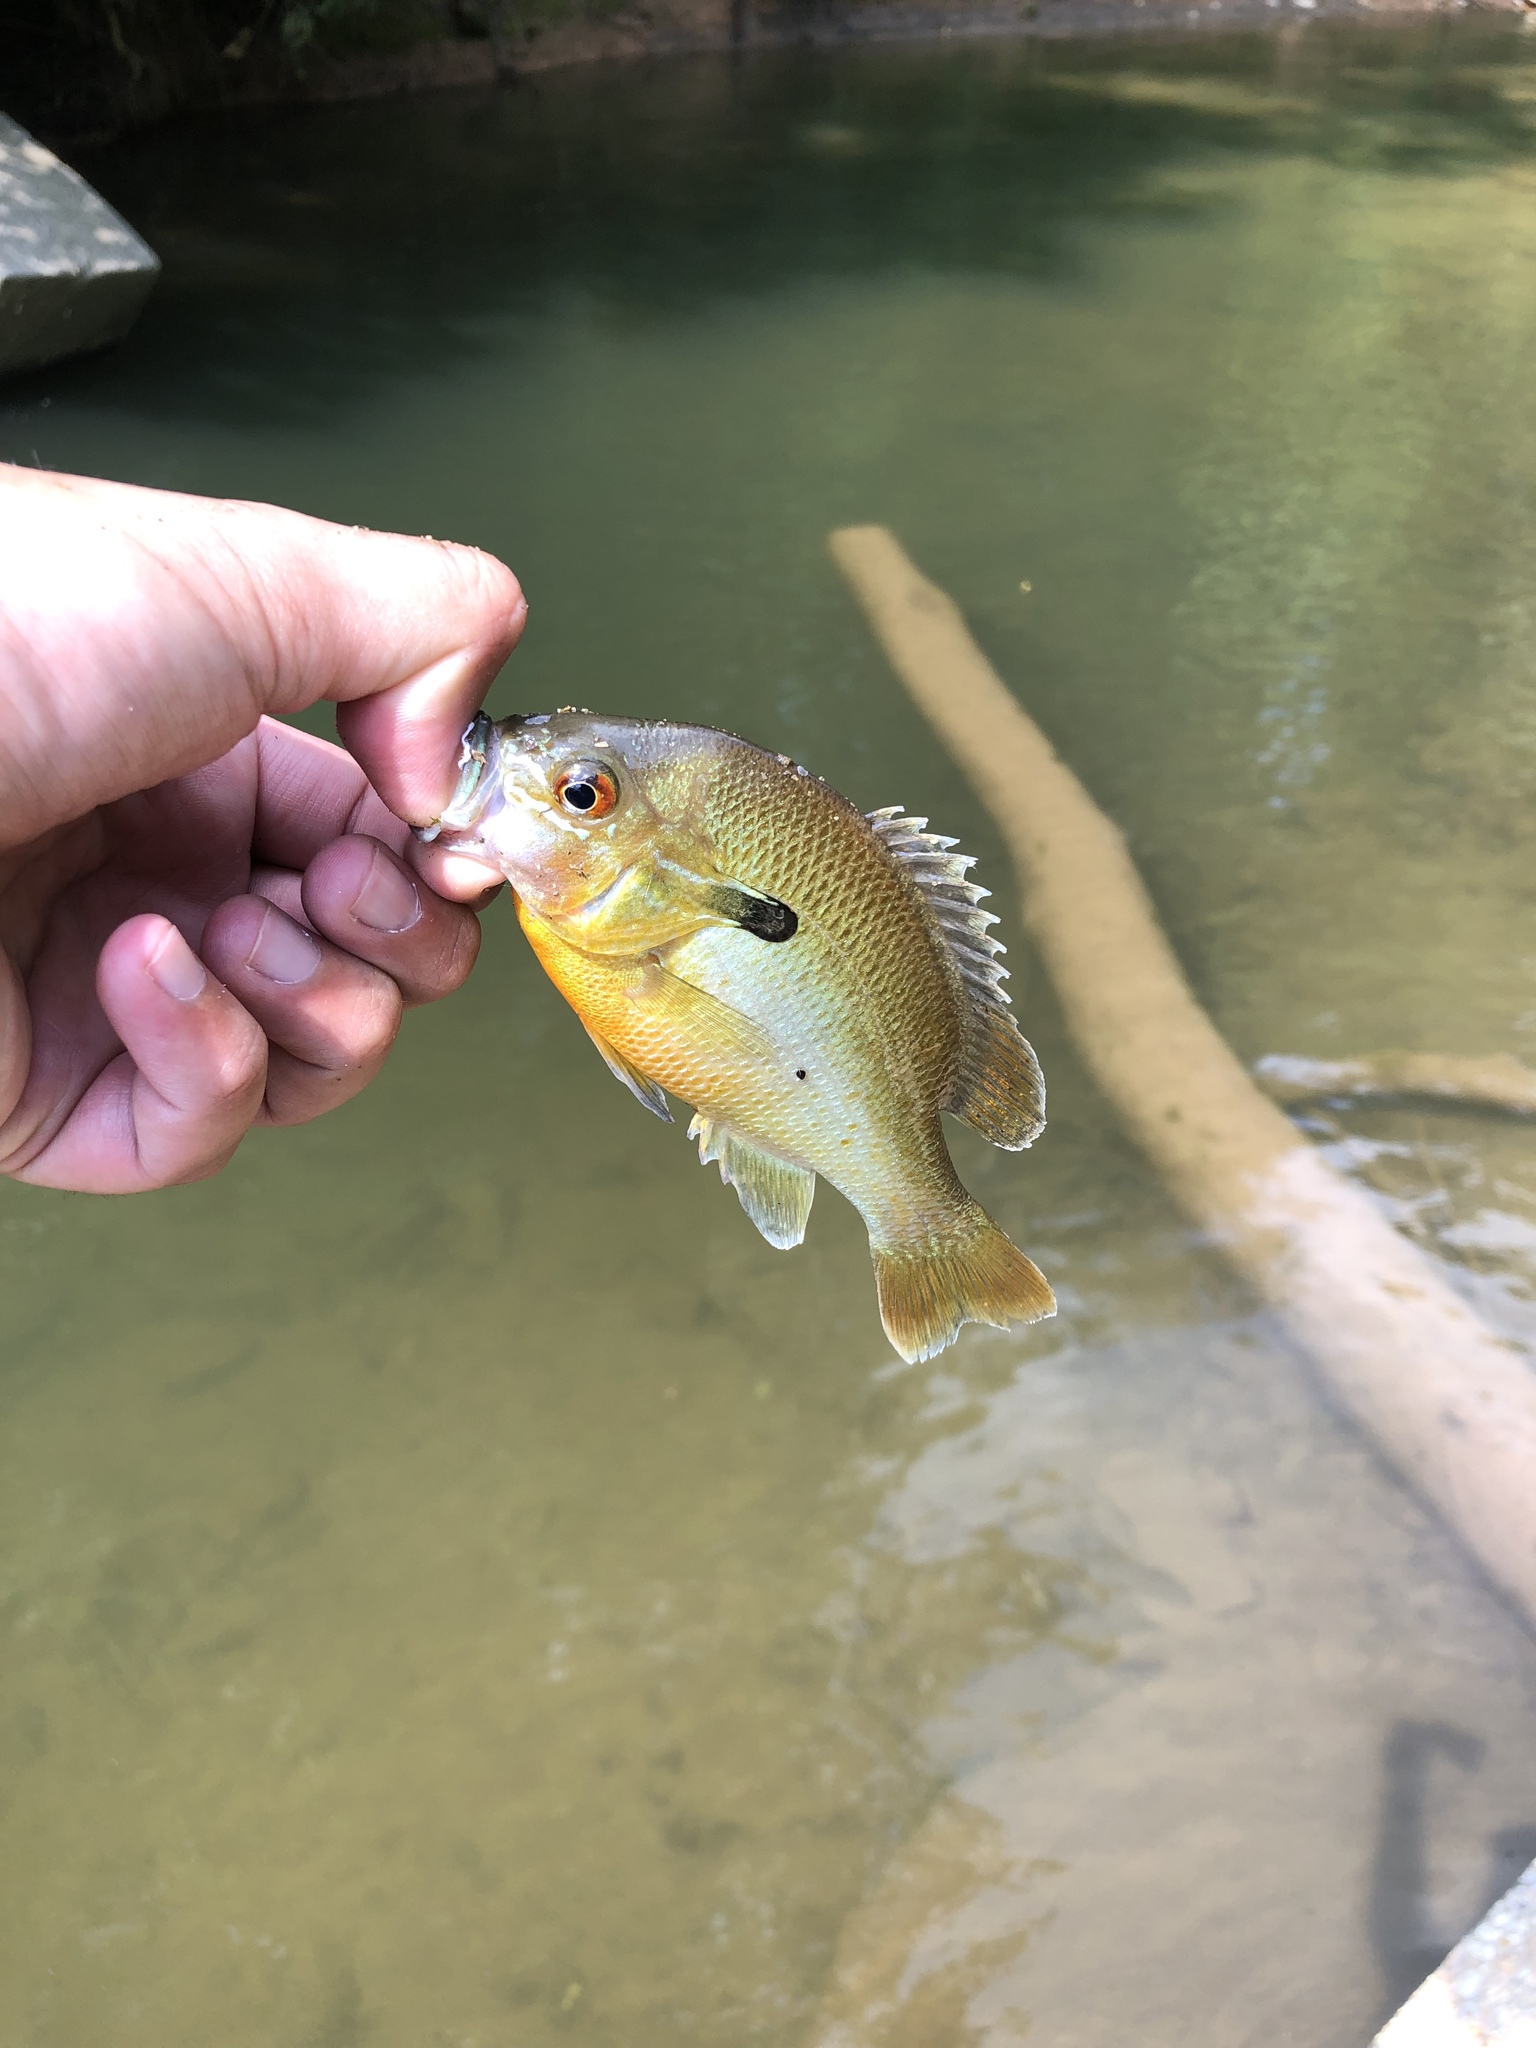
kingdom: Animalia
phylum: Chordata
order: Perciformes
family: Centrarchidae
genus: Lepomis
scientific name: Lepomis auritus
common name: Redbreast sunfish
